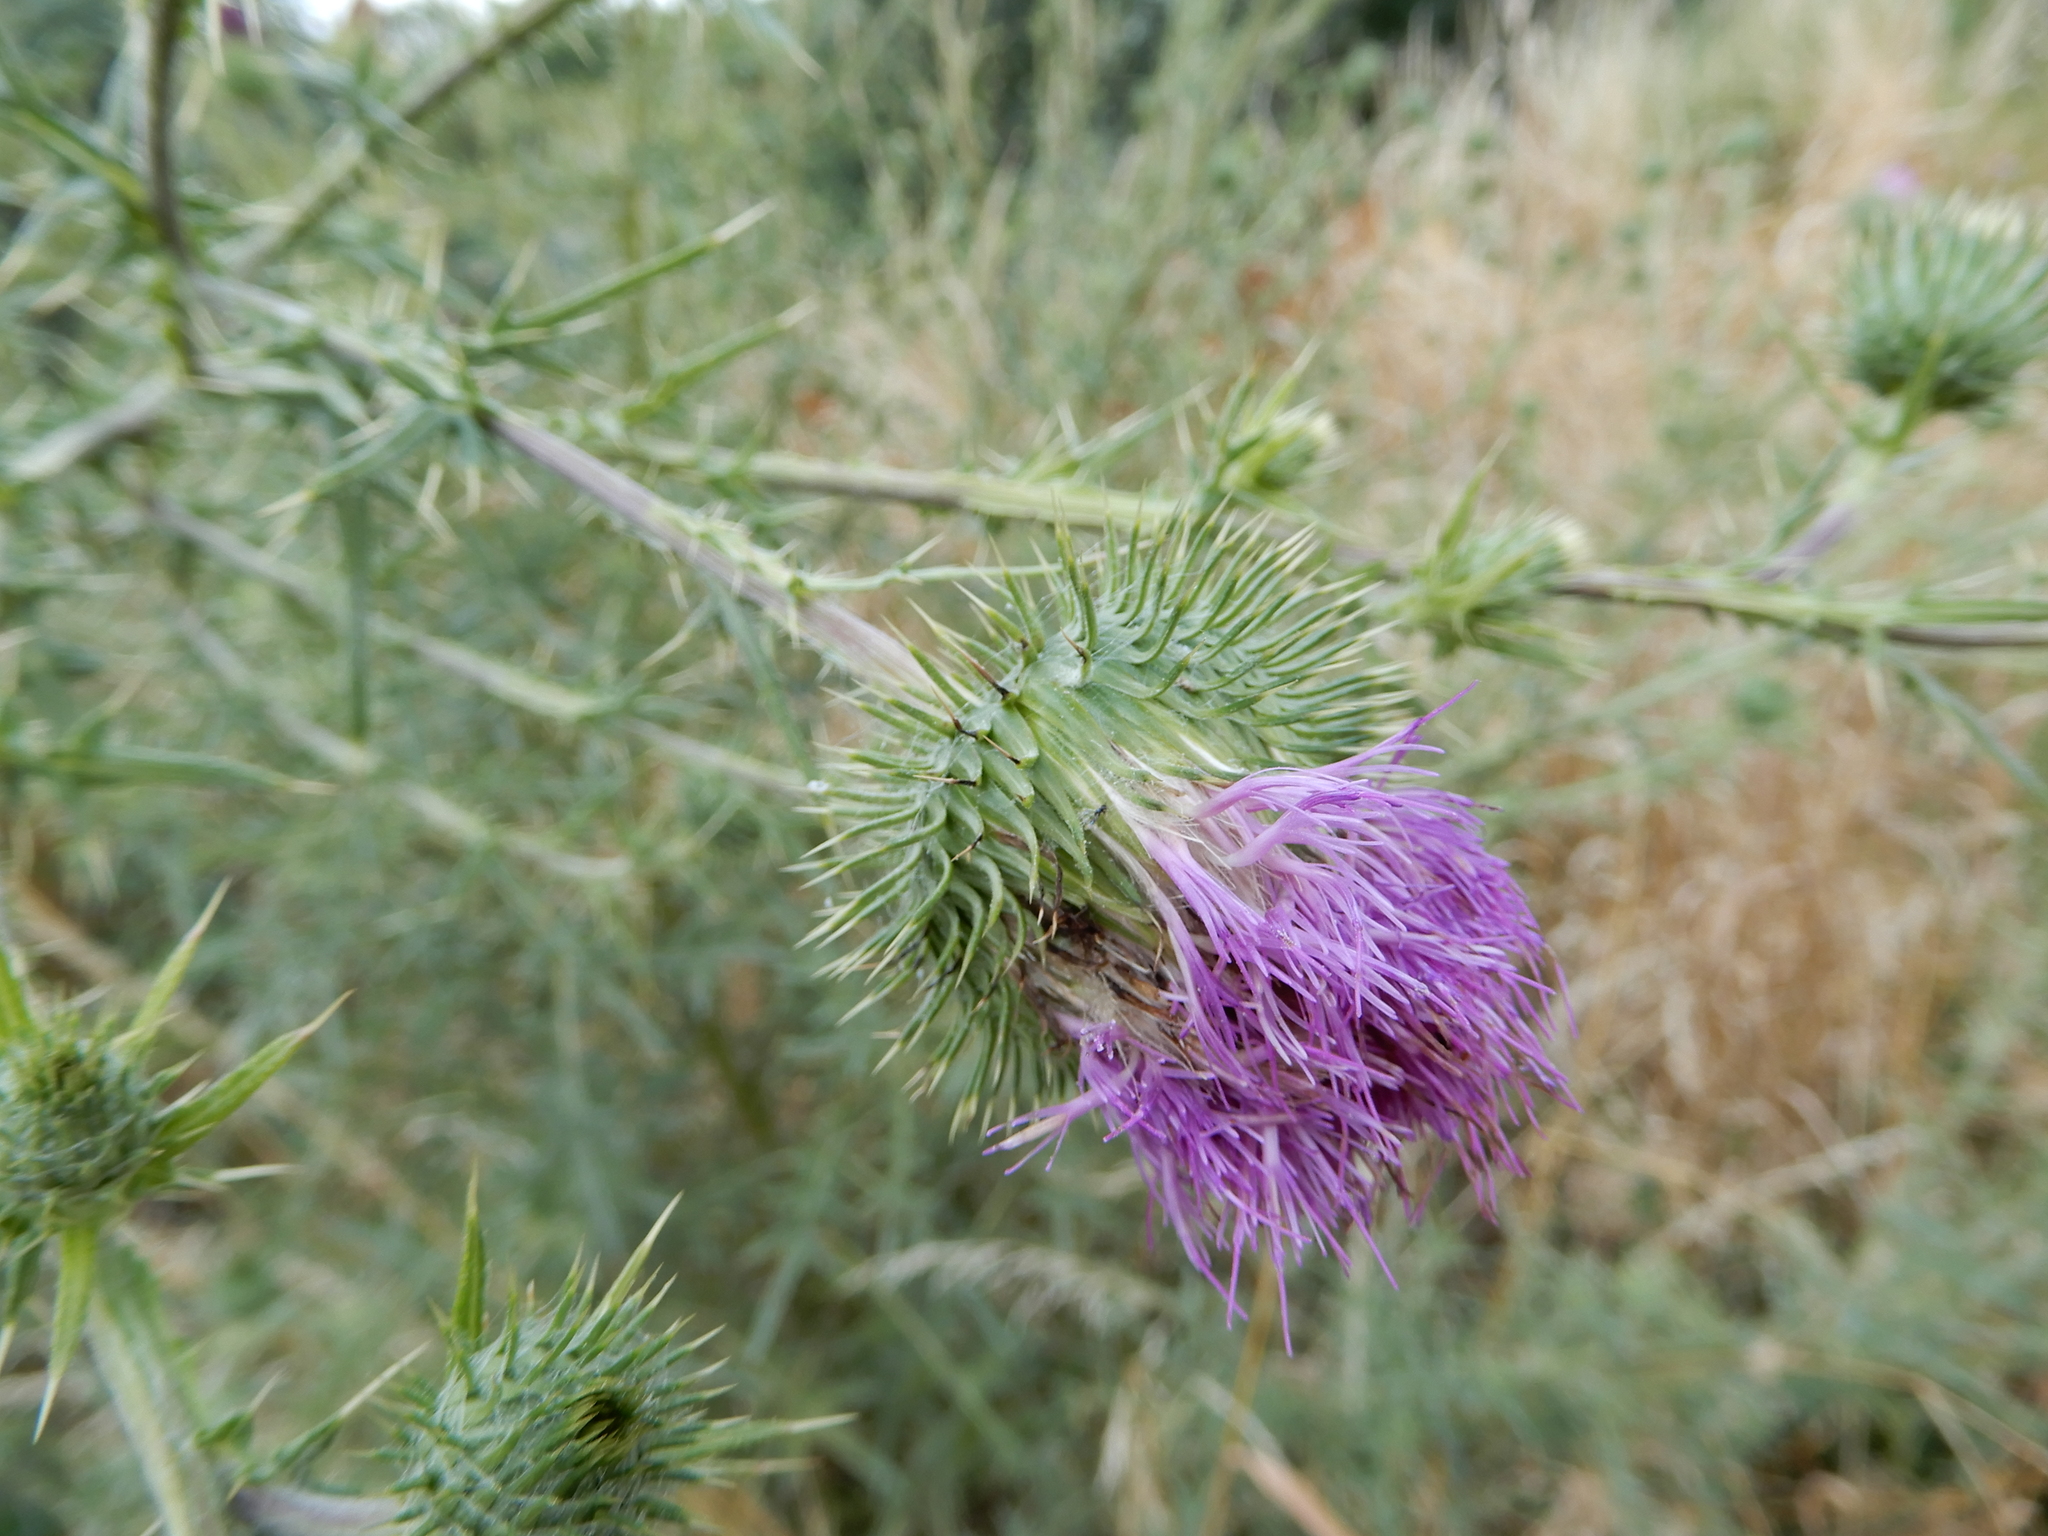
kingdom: Plantae
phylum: Tracheophyta
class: Magnoliopsida
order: Asterales
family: Asteraceae
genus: Cirsium
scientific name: Cirsium vulgare
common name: Bull thistle
